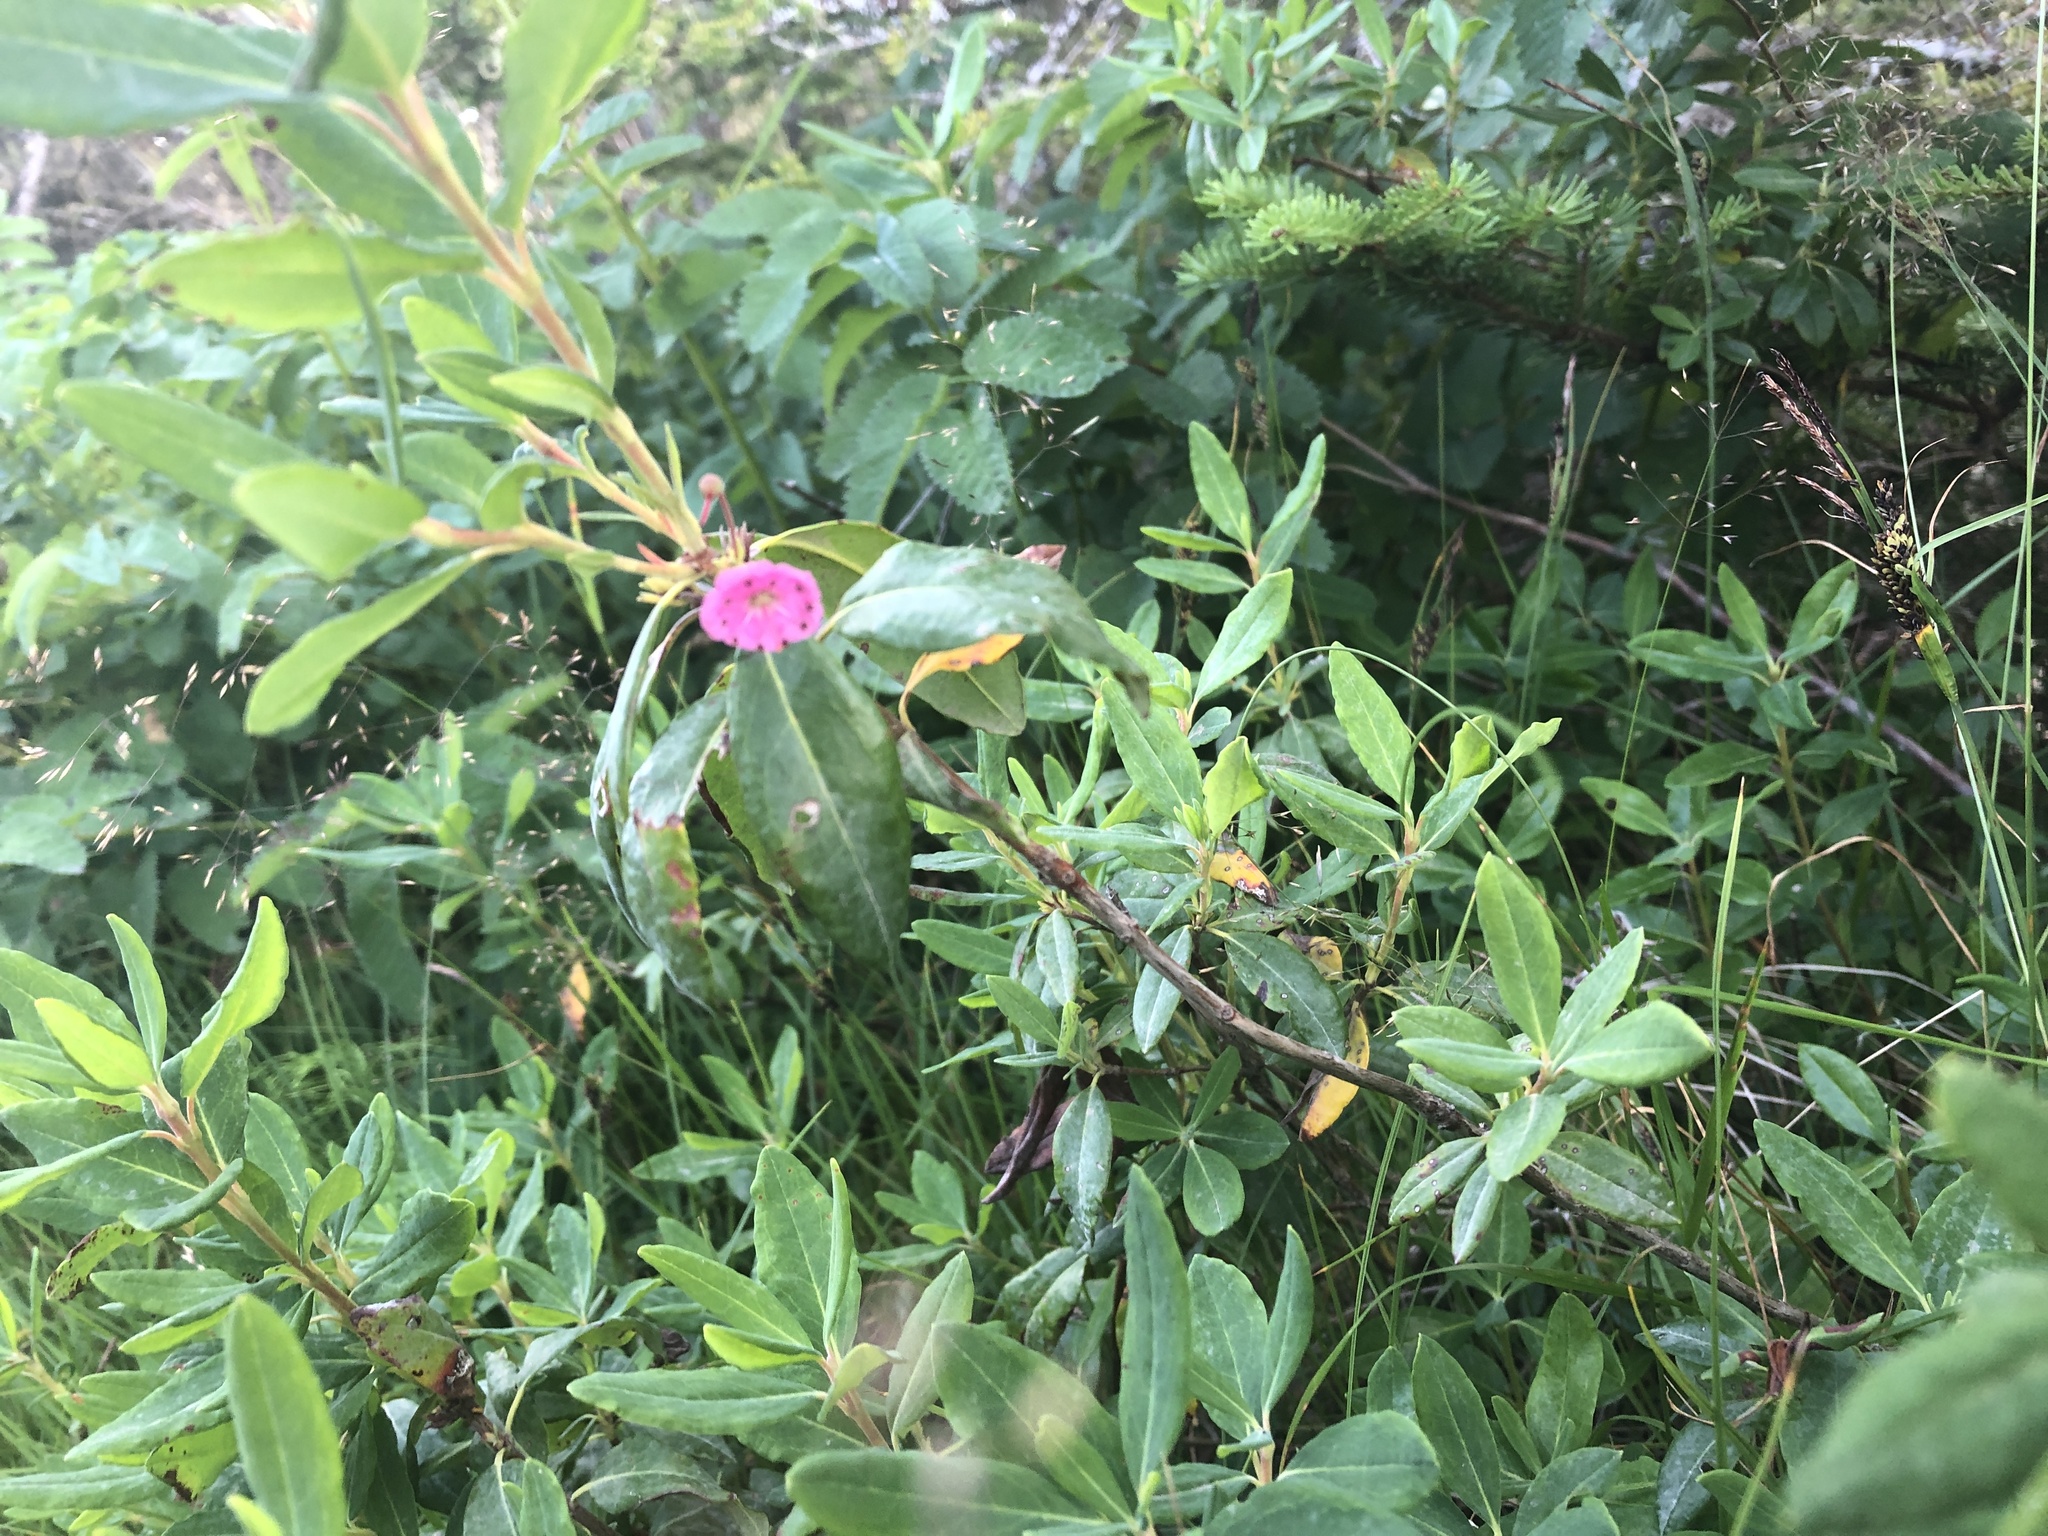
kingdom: Plantae
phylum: Tracheophyta
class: Magnoliopsida
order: Ericales
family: Ericaceae
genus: Kalmia
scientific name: Kalmia angustifolia
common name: Sheep-laurel
